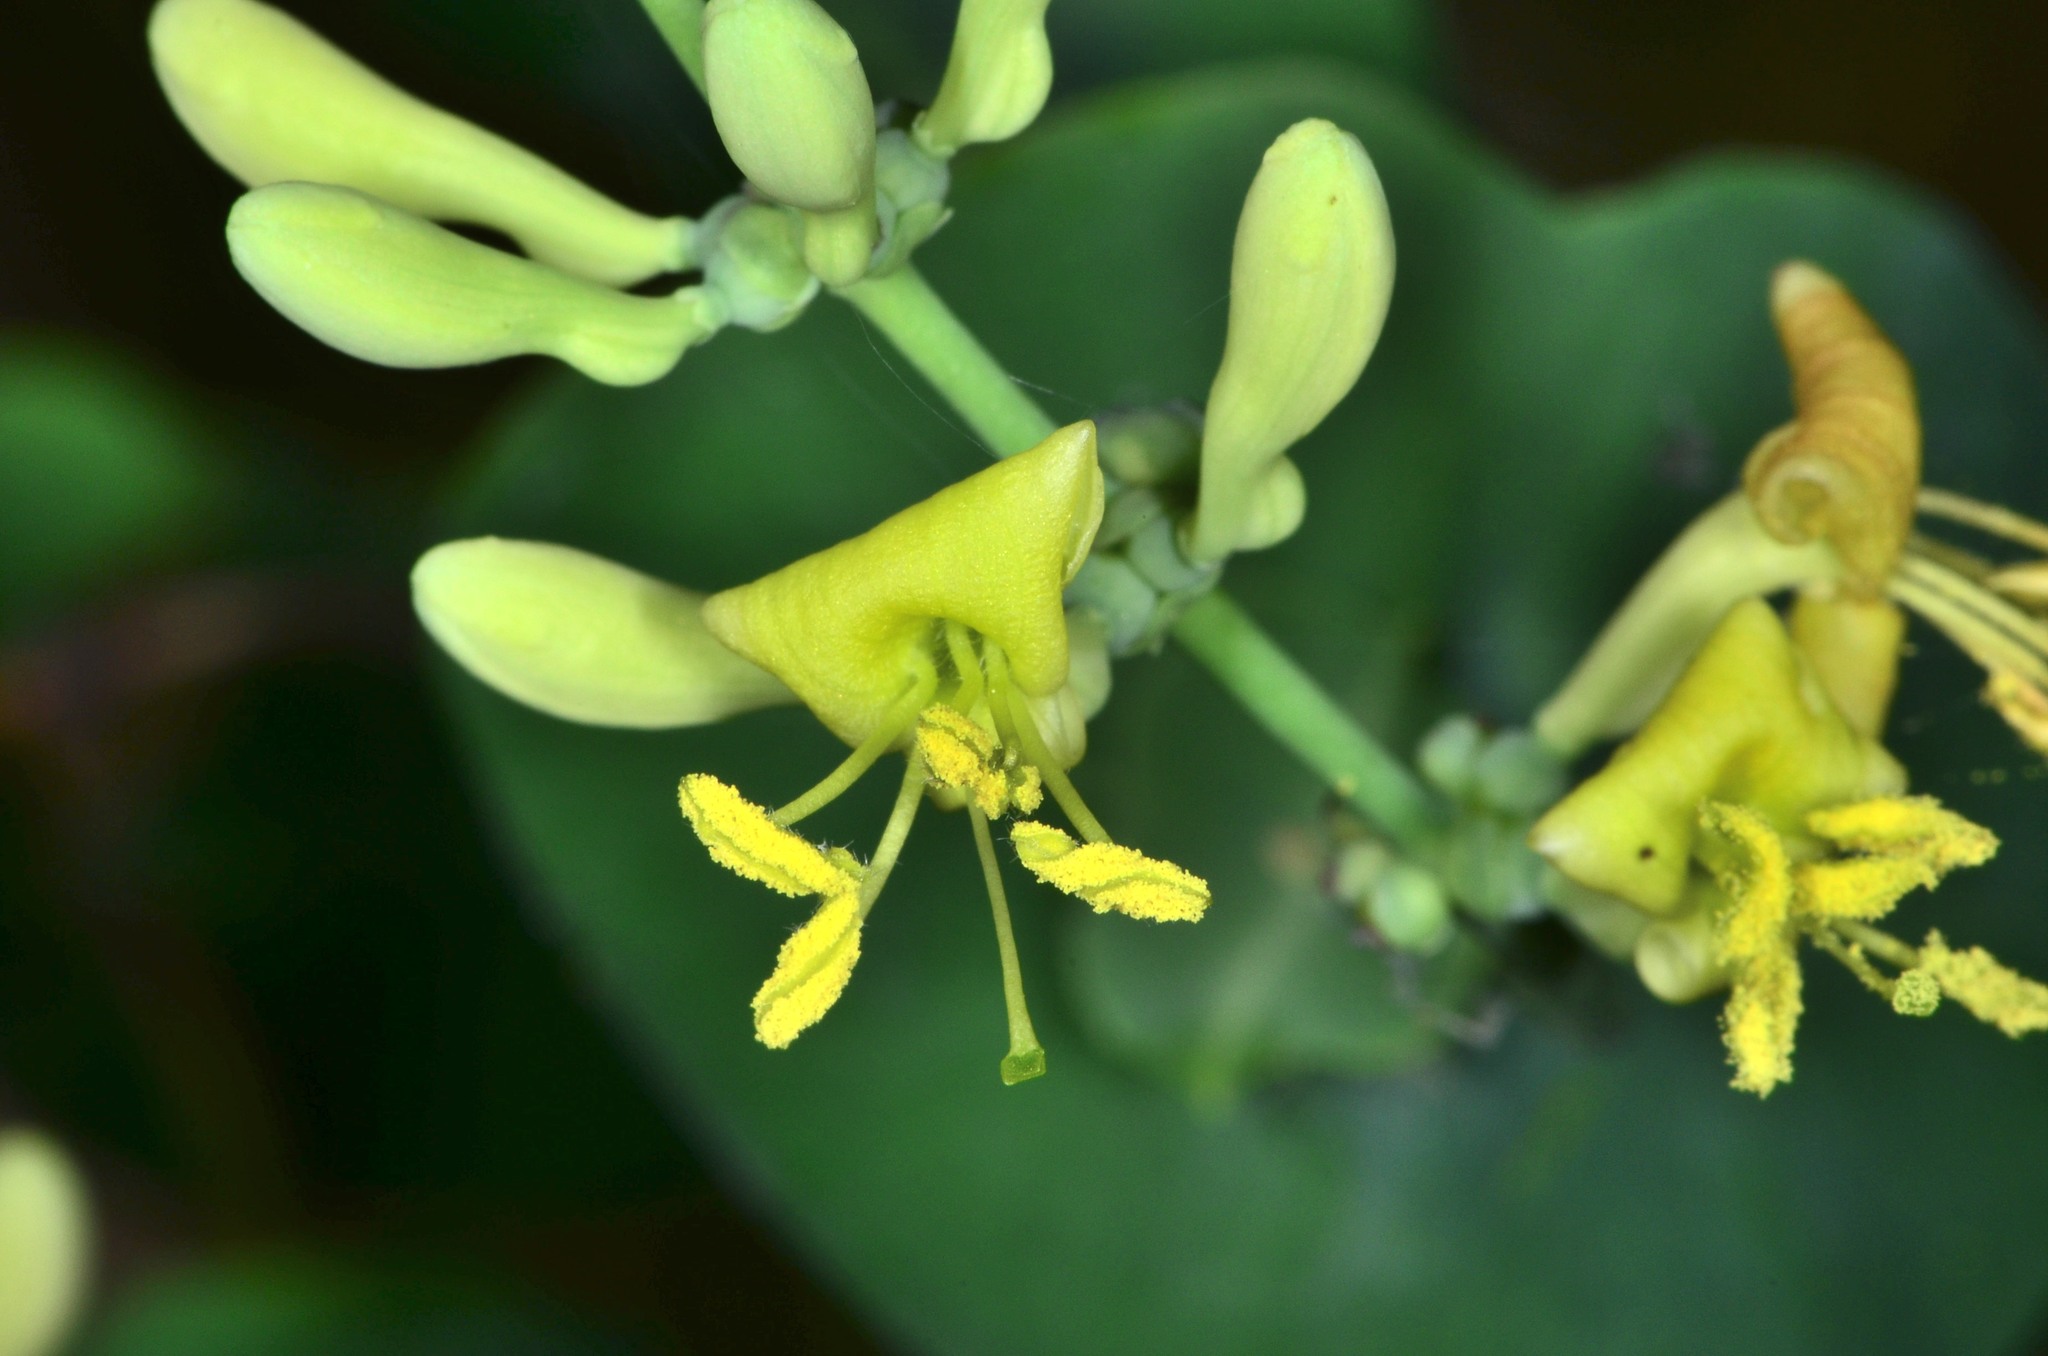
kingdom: Plantae
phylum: Tracheophyta
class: Magnoliopsida
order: Dipsacales
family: Caprifoliaceae
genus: Lonicera
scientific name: Lonicera interrupta
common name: Chaparral honeysuckle
